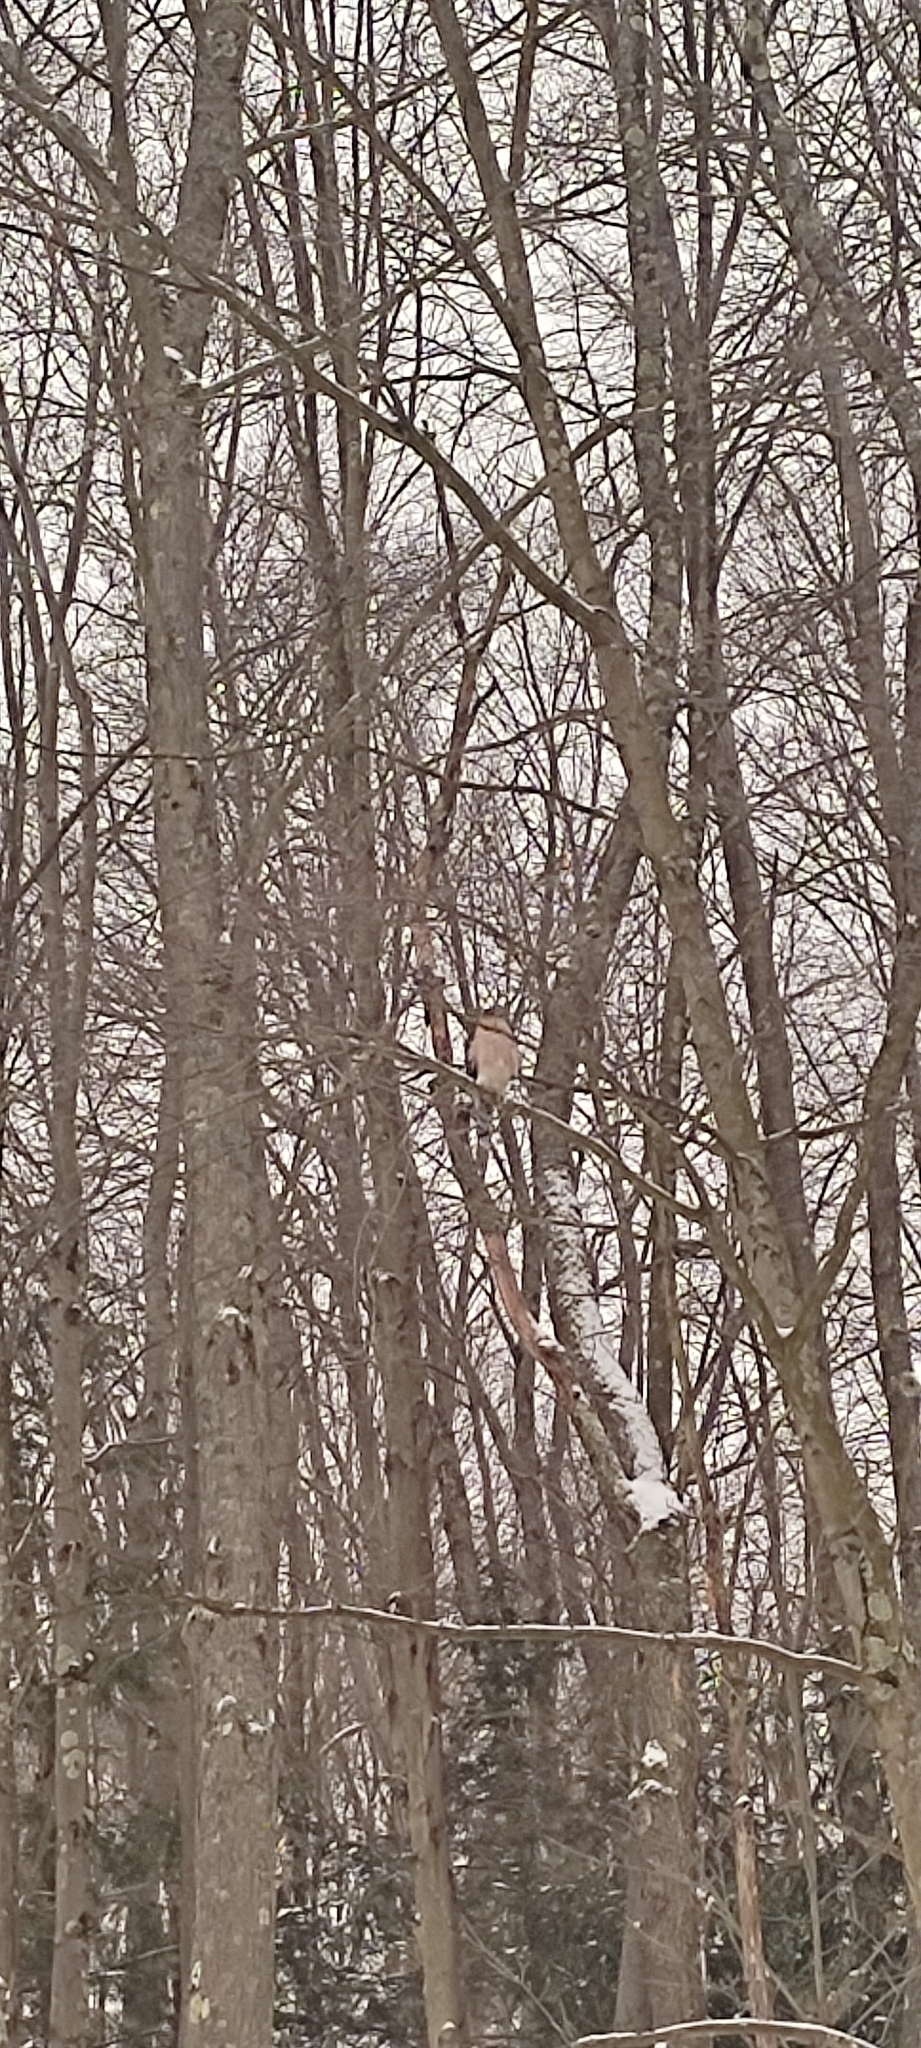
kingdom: Animalia
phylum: Chordata
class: Aves
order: Accipitriformes
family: Accipitridae
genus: Accipiter
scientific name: Accipiter cooperii
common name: Cooper's hawk
